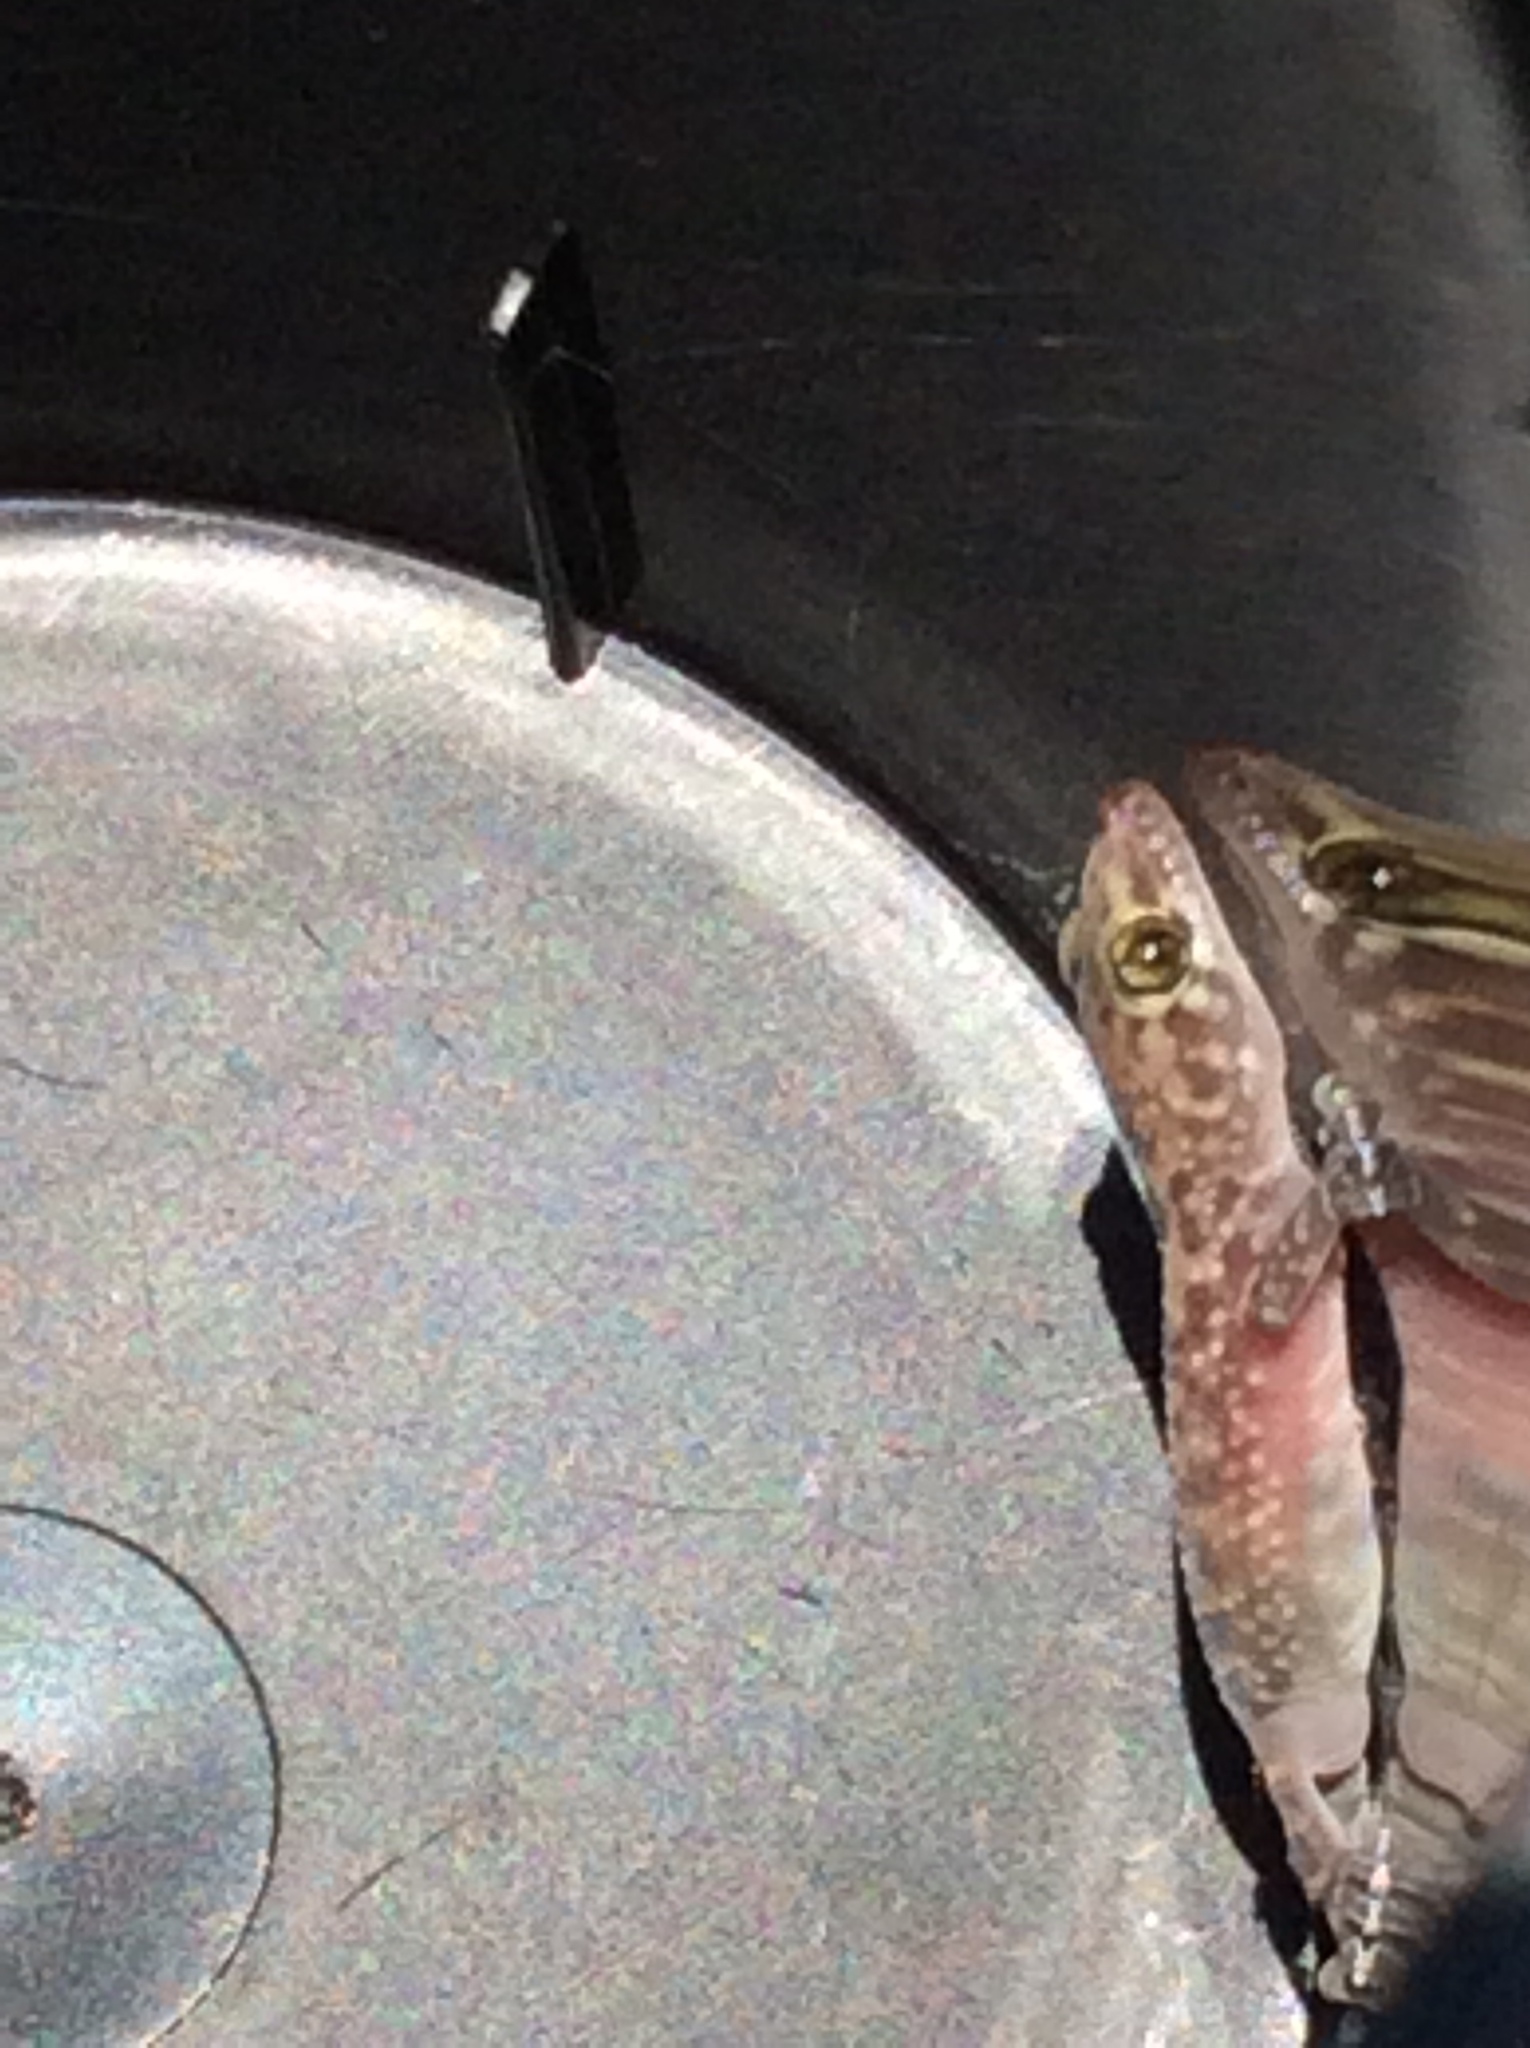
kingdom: Animalia
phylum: Chordata
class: Squamata
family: Gekkonidae
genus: Hemidactylus
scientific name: Hemidactylus turcicus
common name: Turkish gecko
